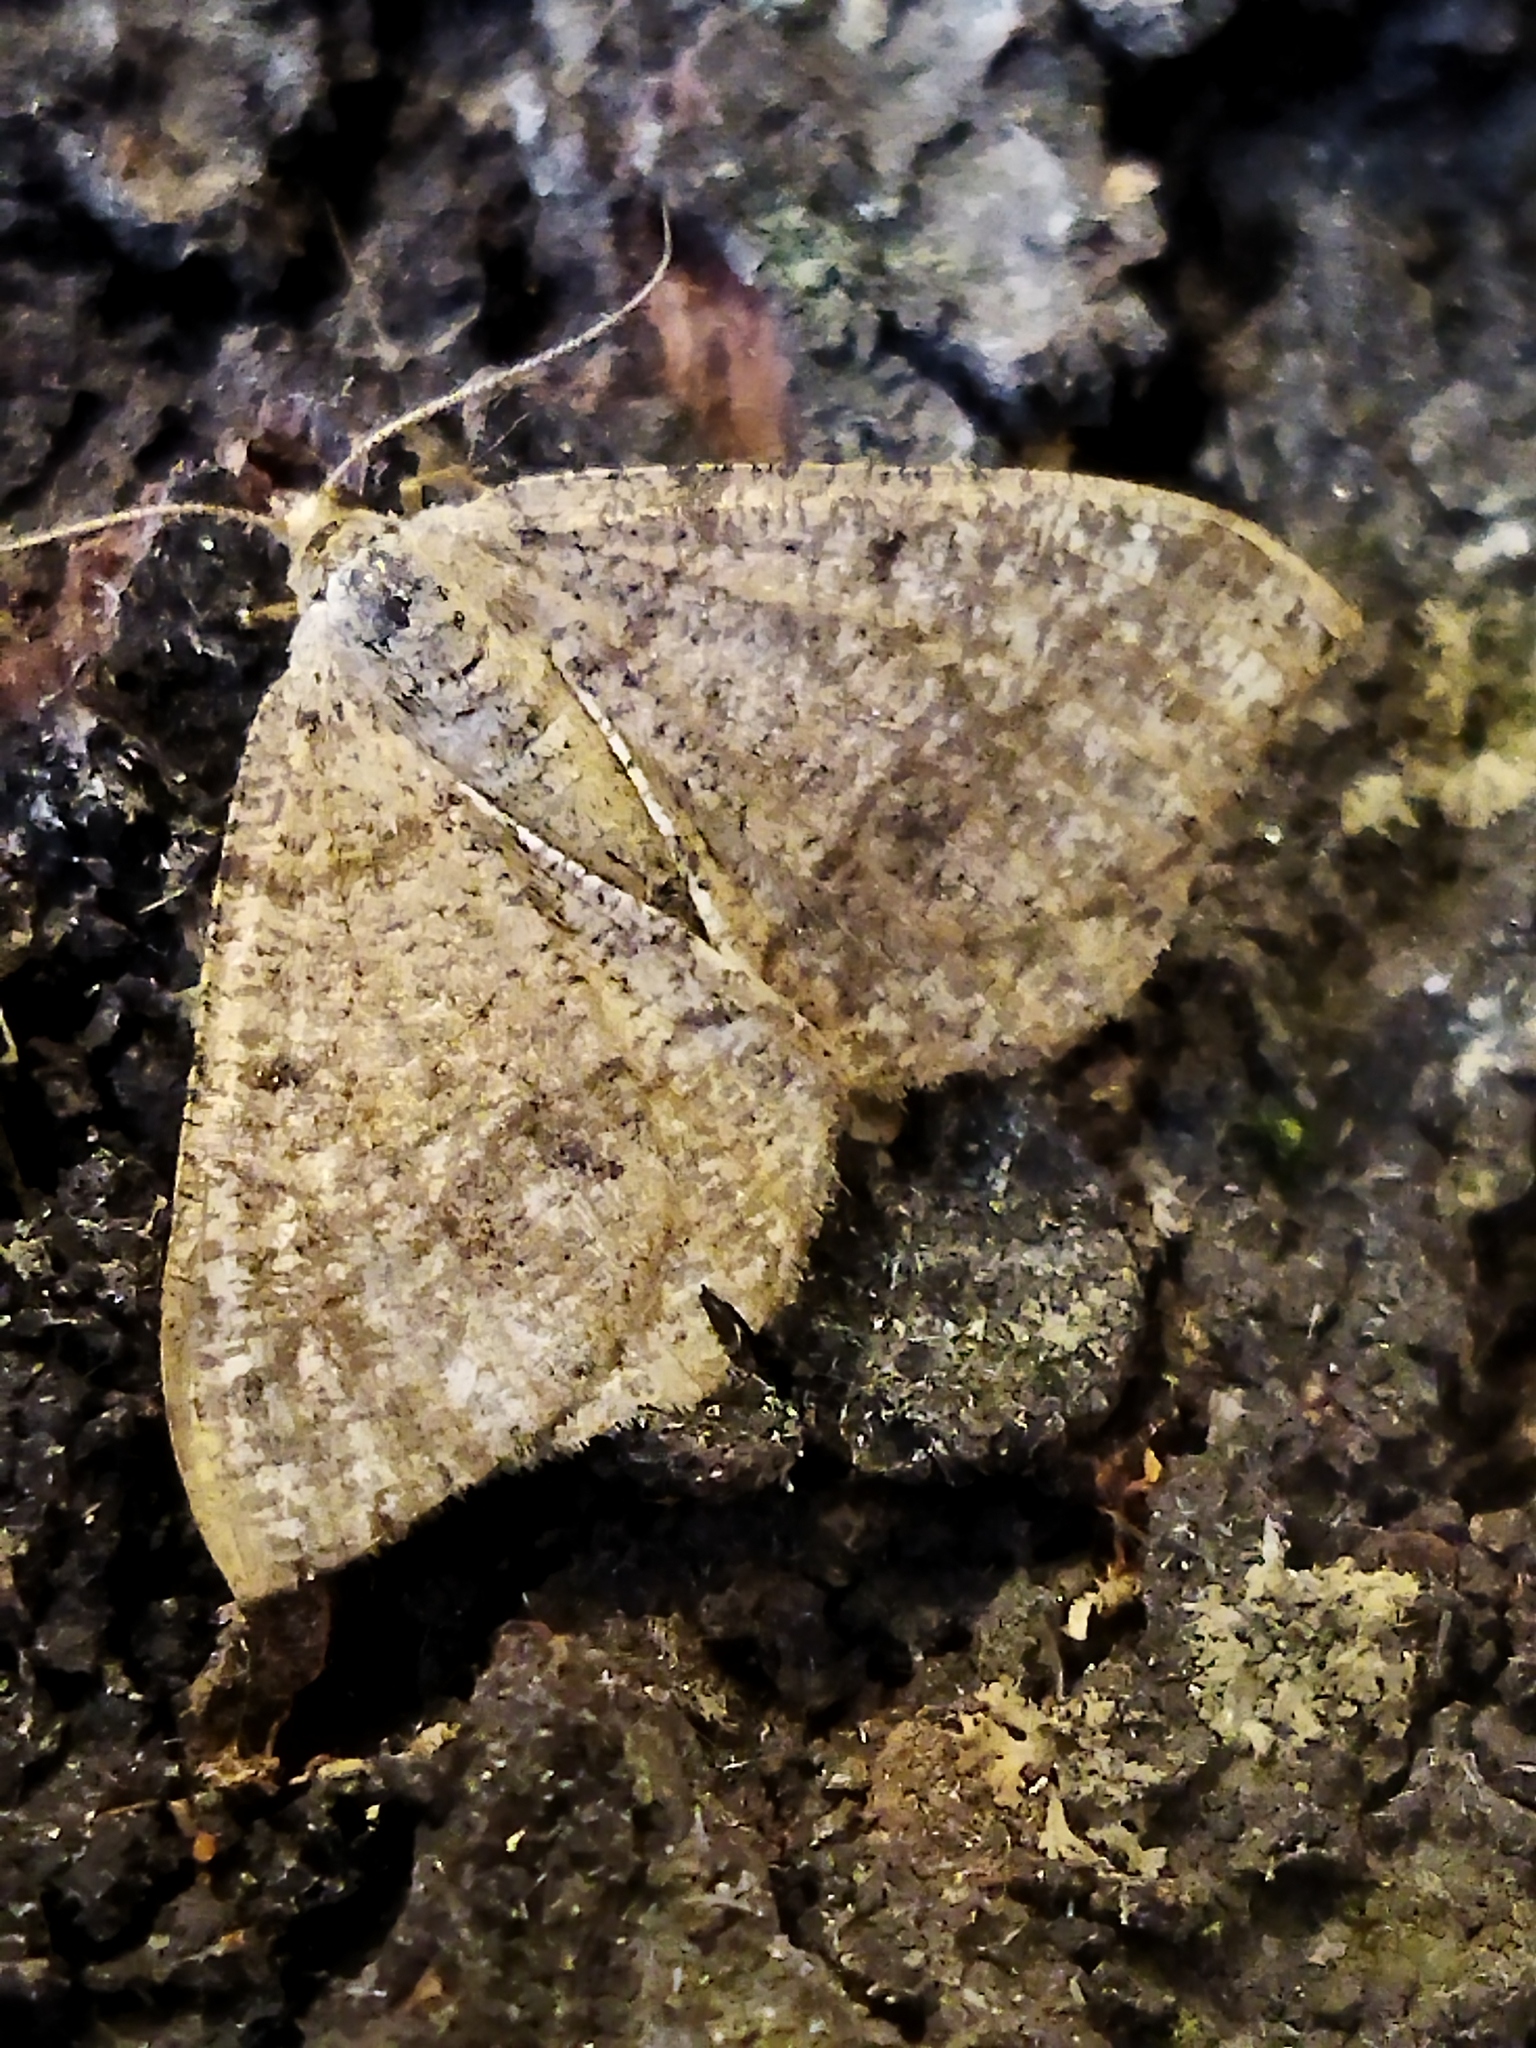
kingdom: Animalia
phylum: Arthropoda
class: Insecta
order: Lepidoptera
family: Geometridae
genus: Tephrina
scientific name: Tephrina murinaria
